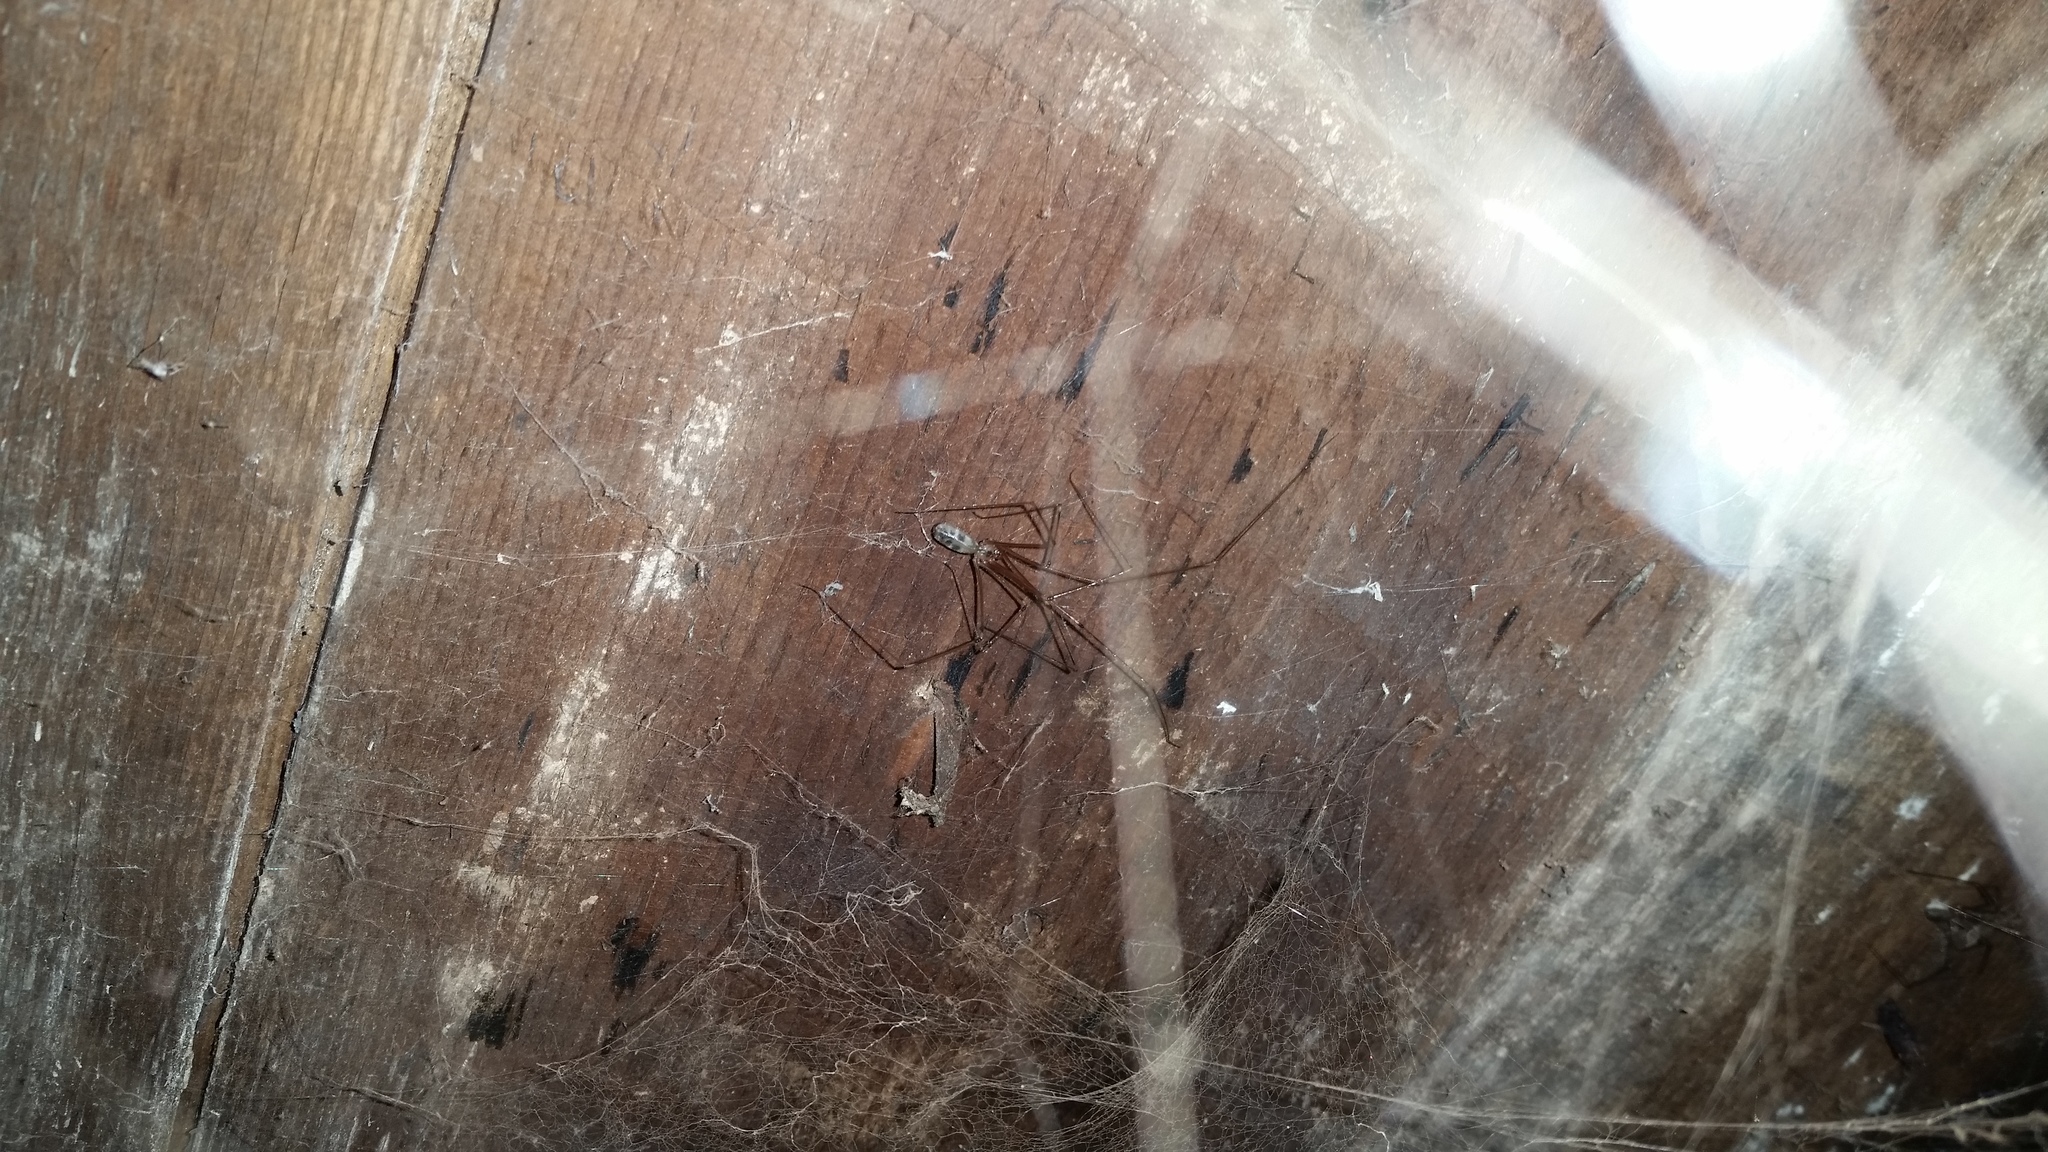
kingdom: Animalia
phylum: Arthropoda
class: Arachnida
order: Araneae
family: Pholcidae
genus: Pholcus
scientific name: Pholcus phalangioides
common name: Longbodied cellar spider
